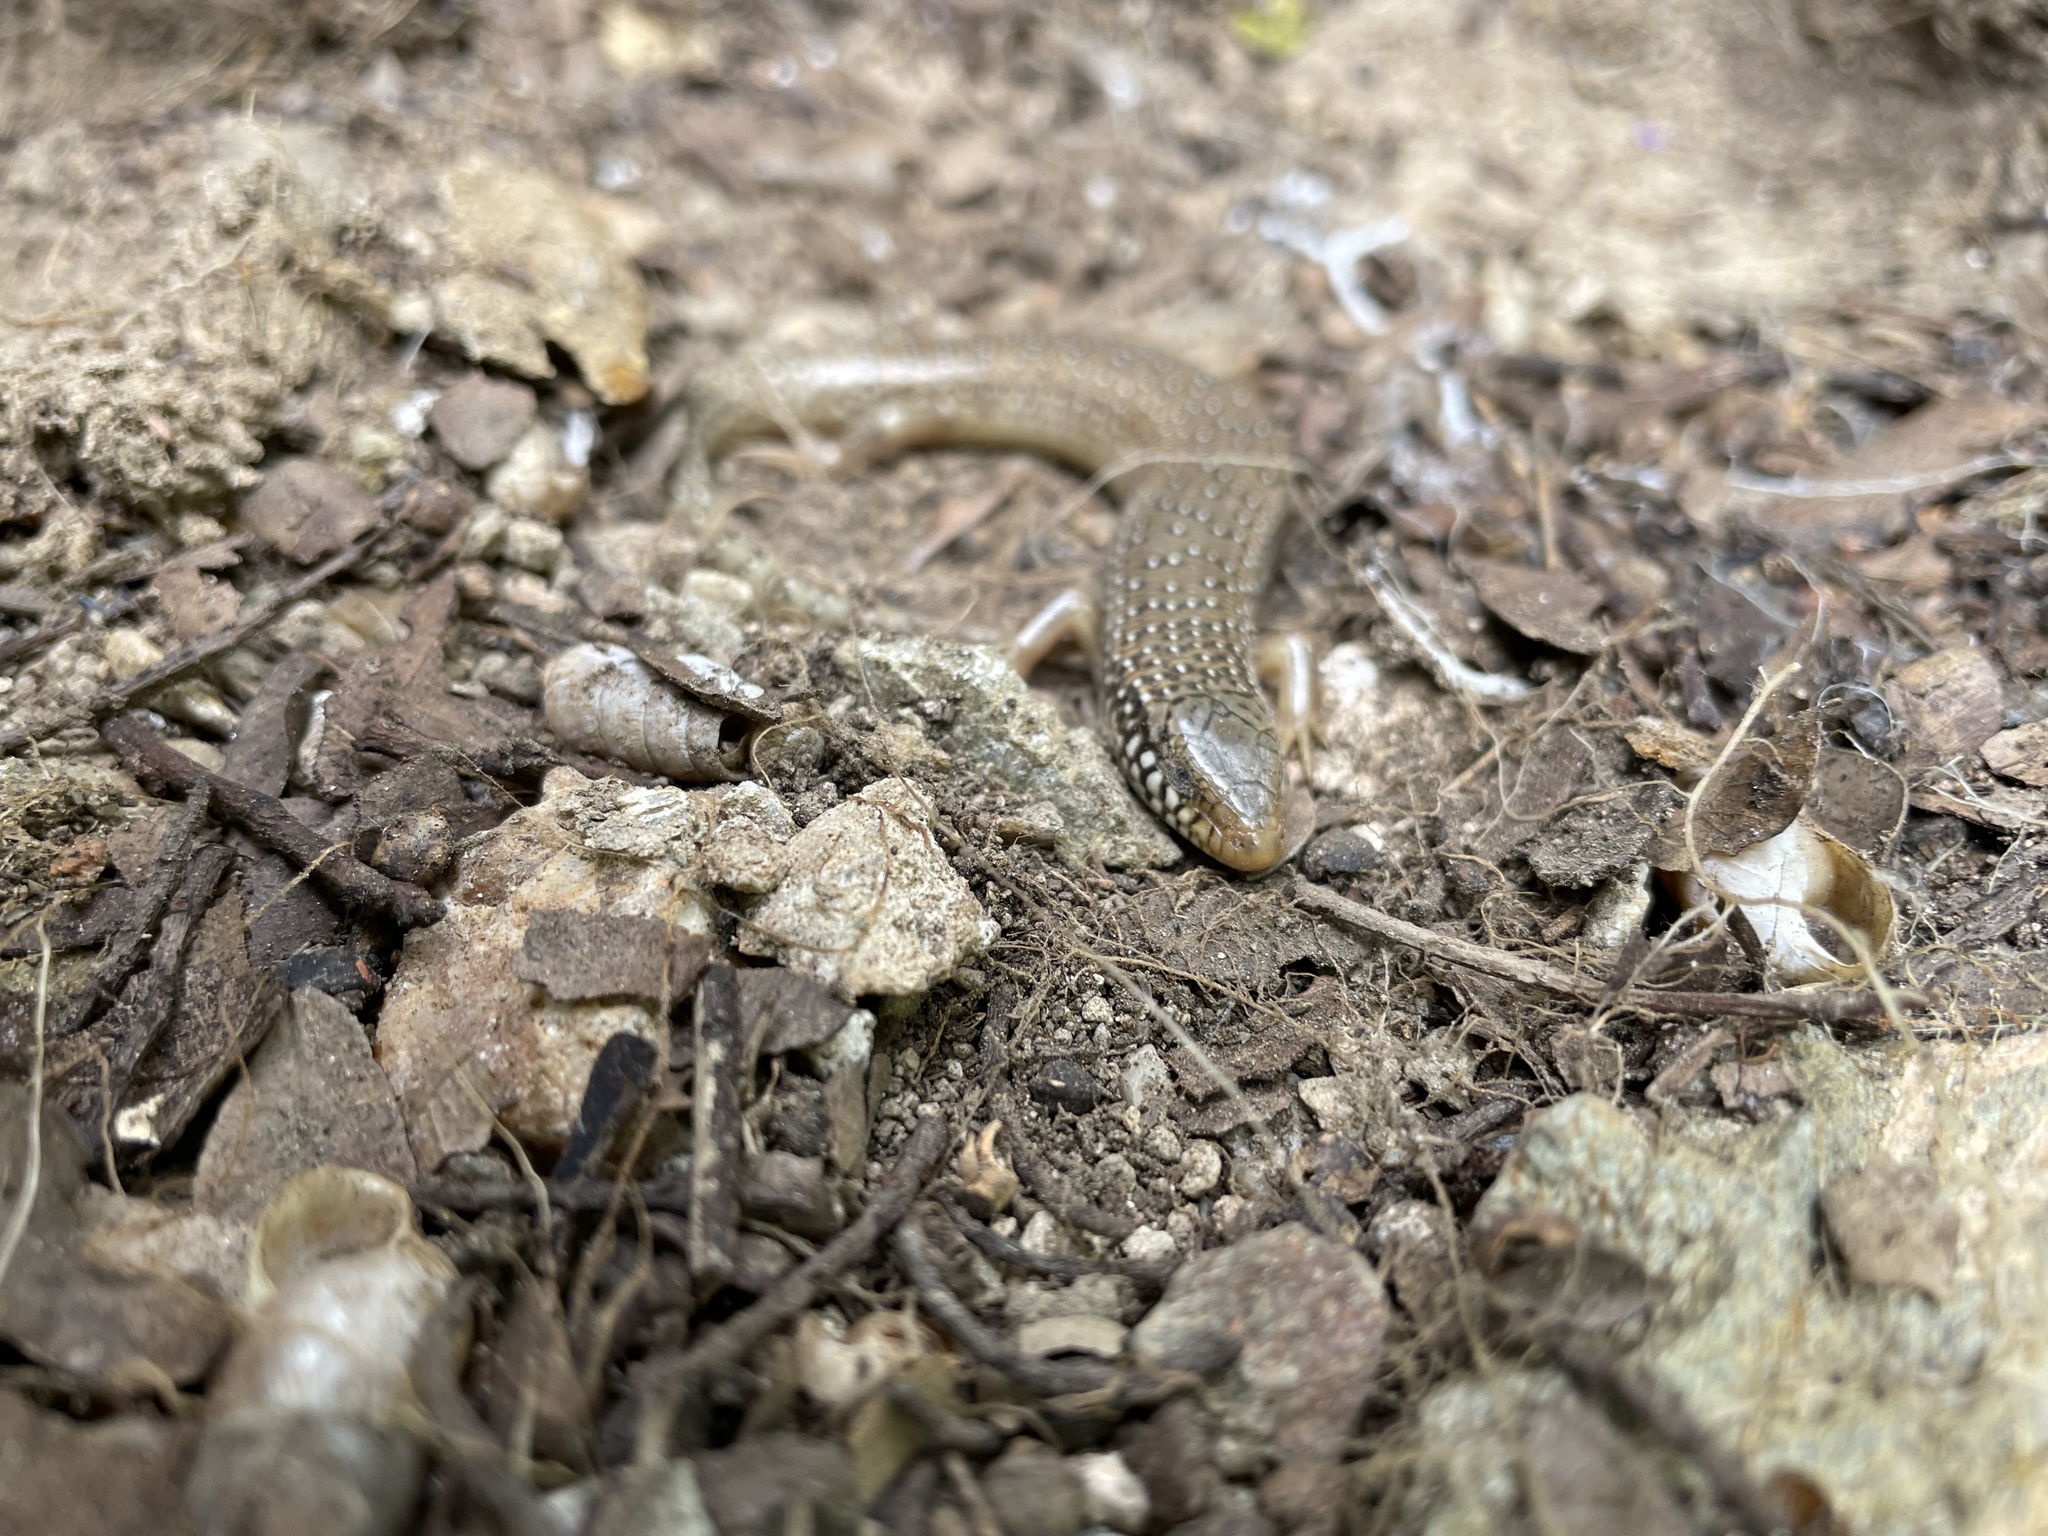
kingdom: Animalia
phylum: Chordata
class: Squamata
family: Scincidae
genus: Chalcides
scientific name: Chalcides ocellatus
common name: Ocellated skink
